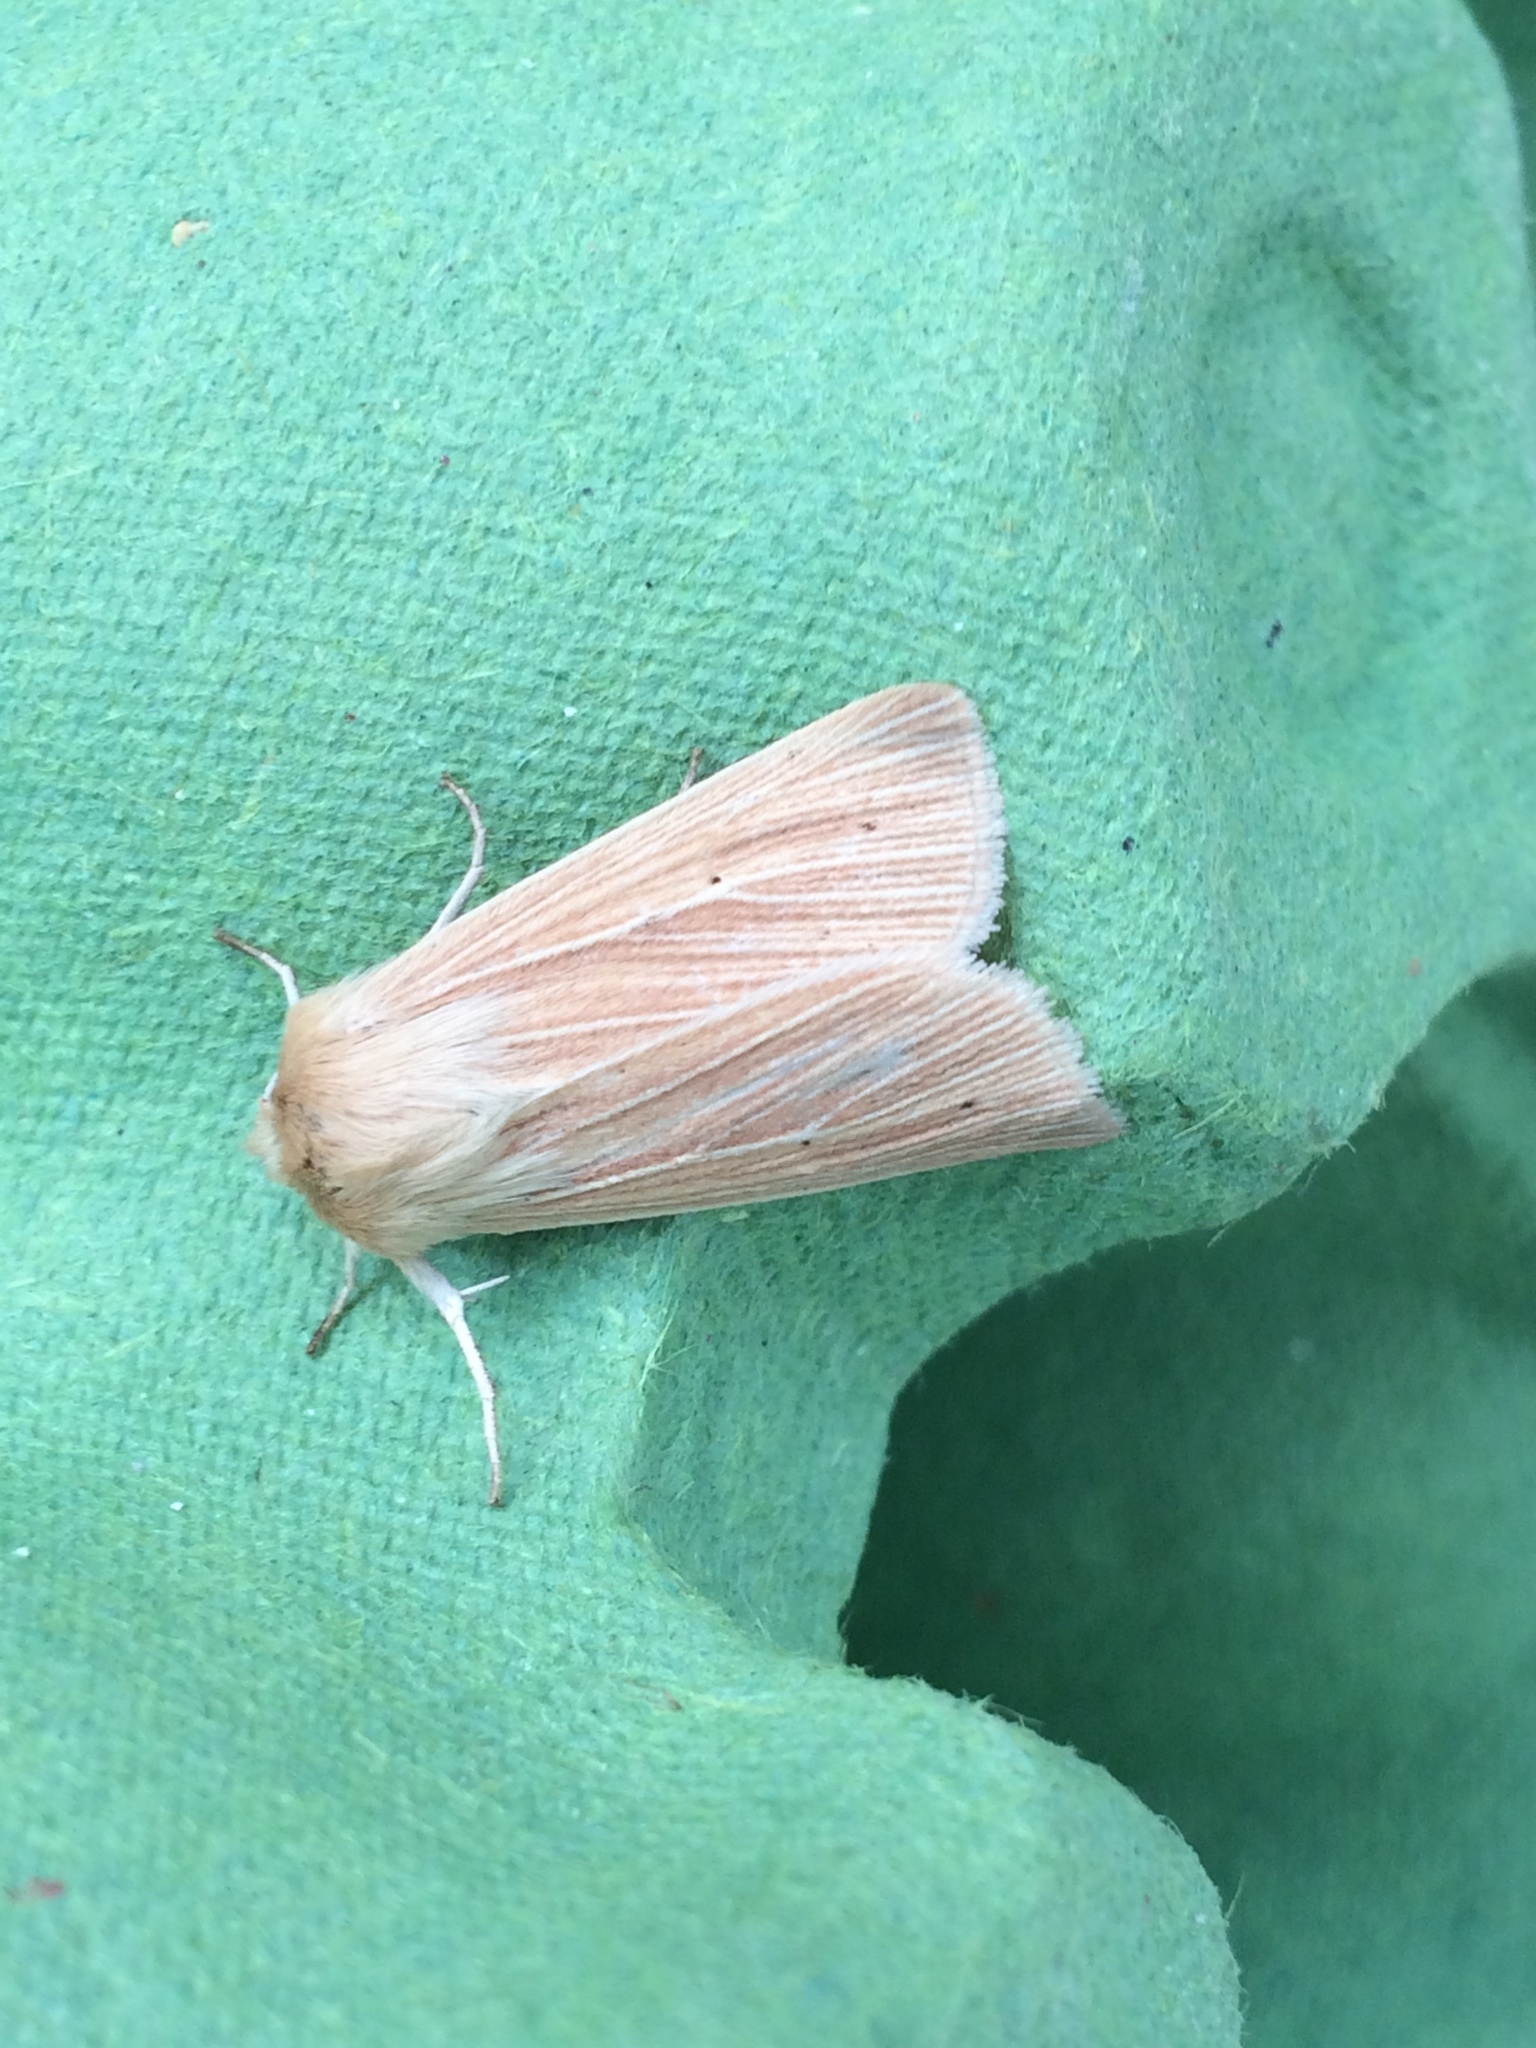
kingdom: Animalia
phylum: Arthropoda
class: Insecta
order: Lepidoptera
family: Noctuidae
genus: Mythimna
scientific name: Mythimna pallens
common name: Common wainscot
